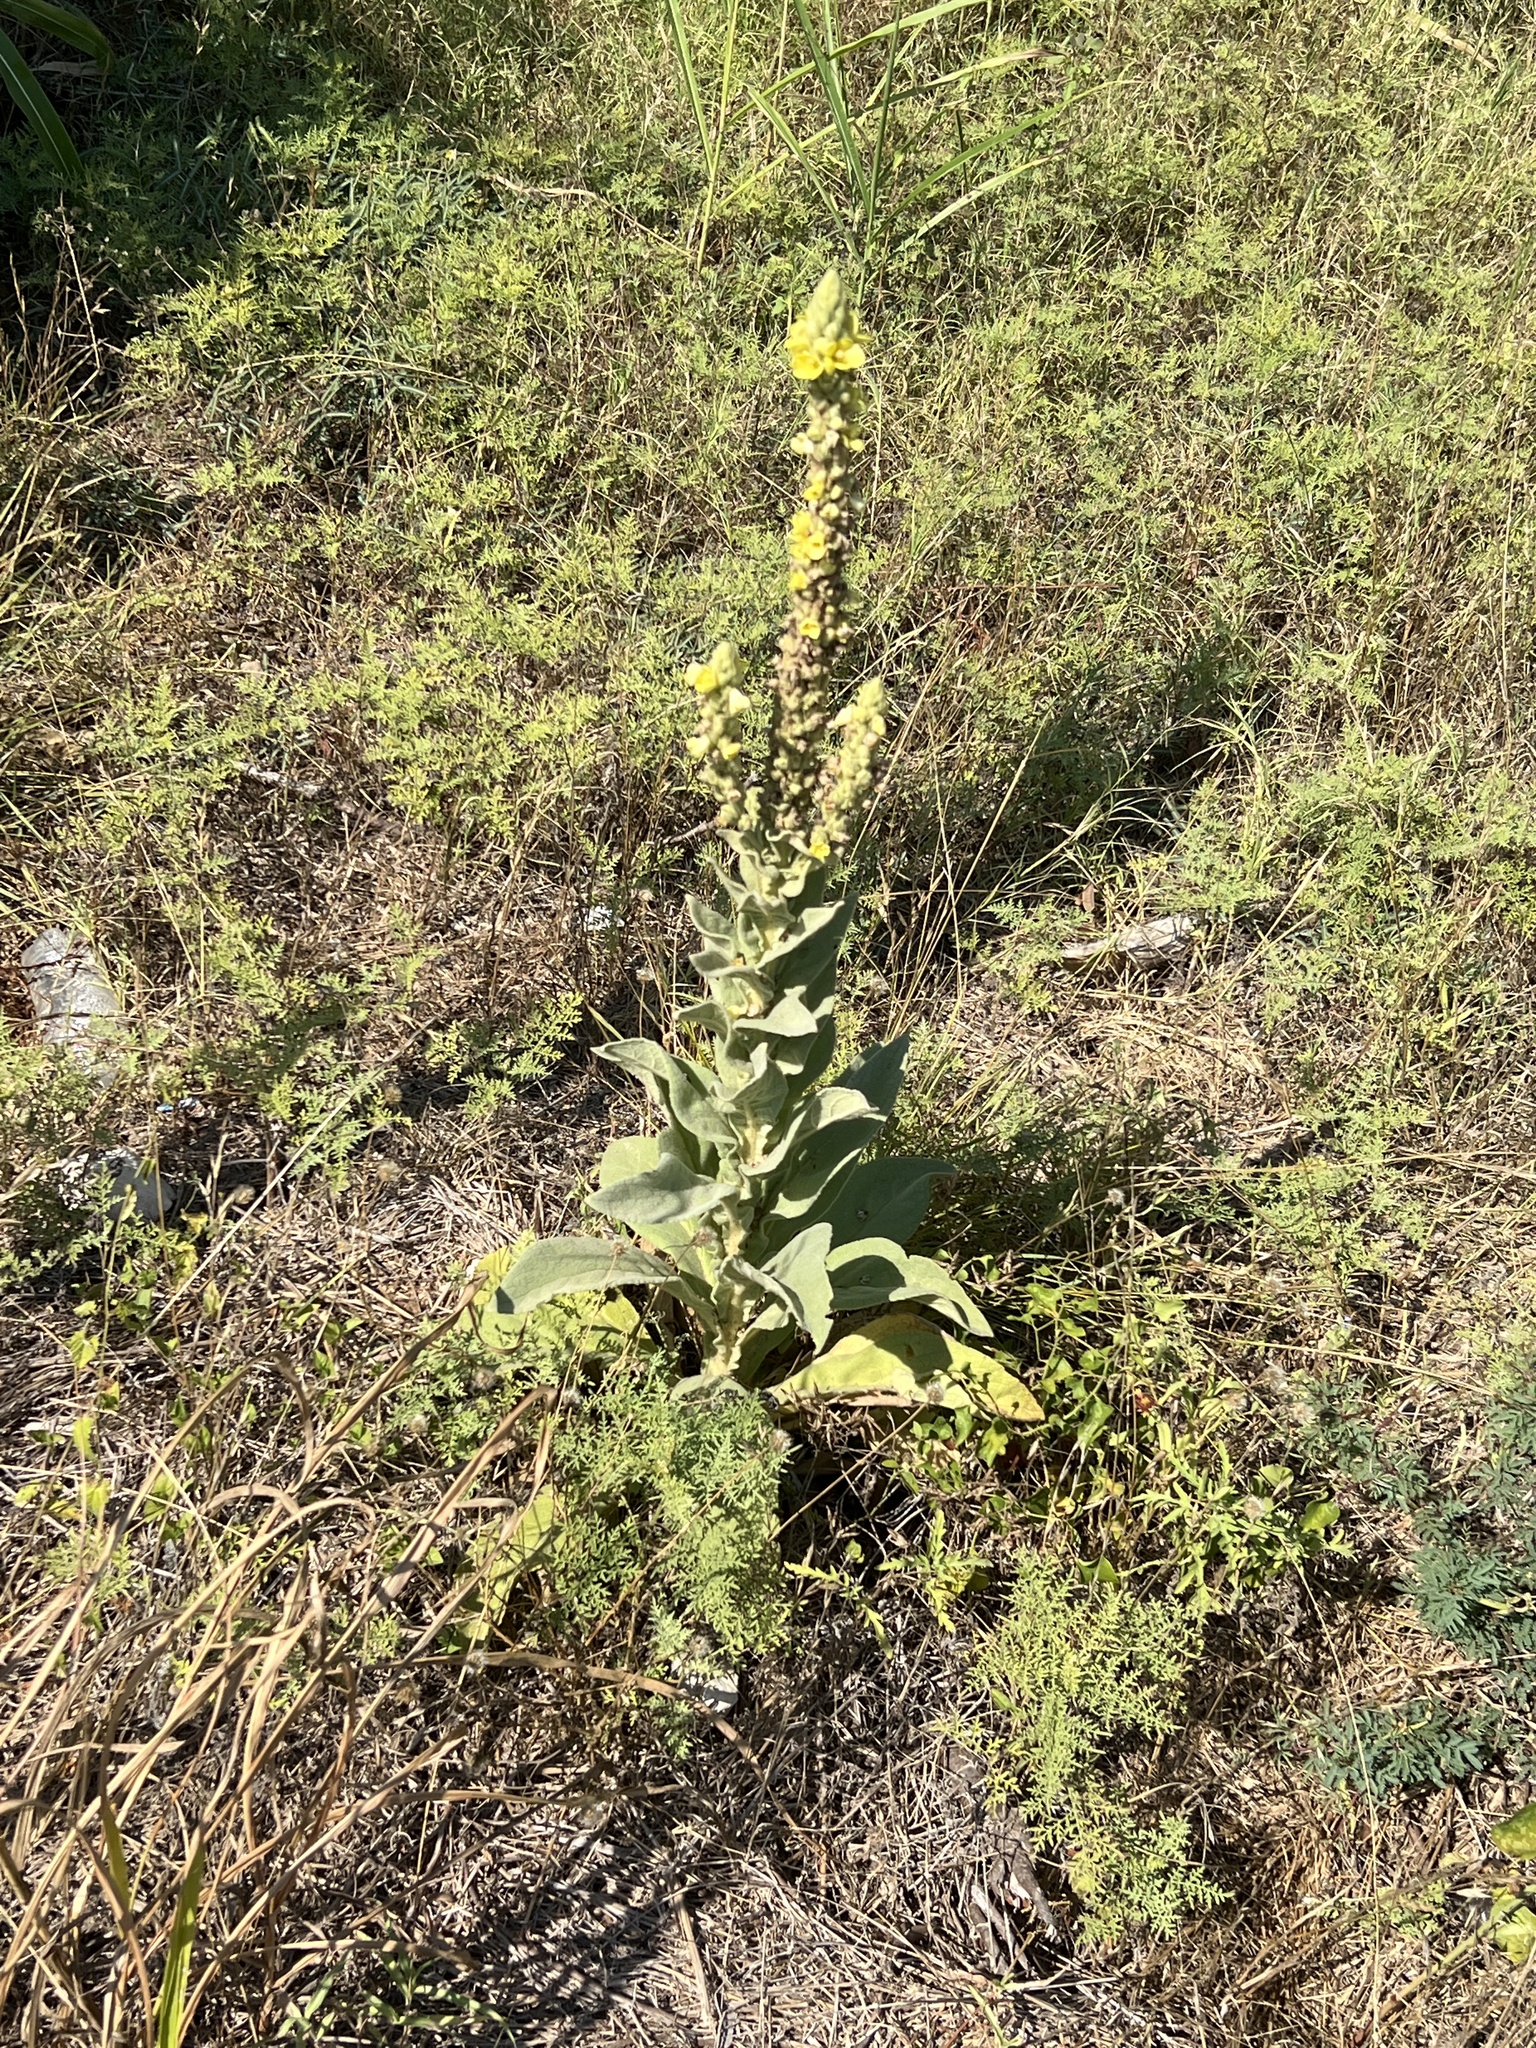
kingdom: Plantae
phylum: Tracheophyta
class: Magnoliopsida
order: Lamiales
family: Scrophulariaceae
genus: Verbascum
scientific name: Verbascum thapsus
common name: Common mullein
